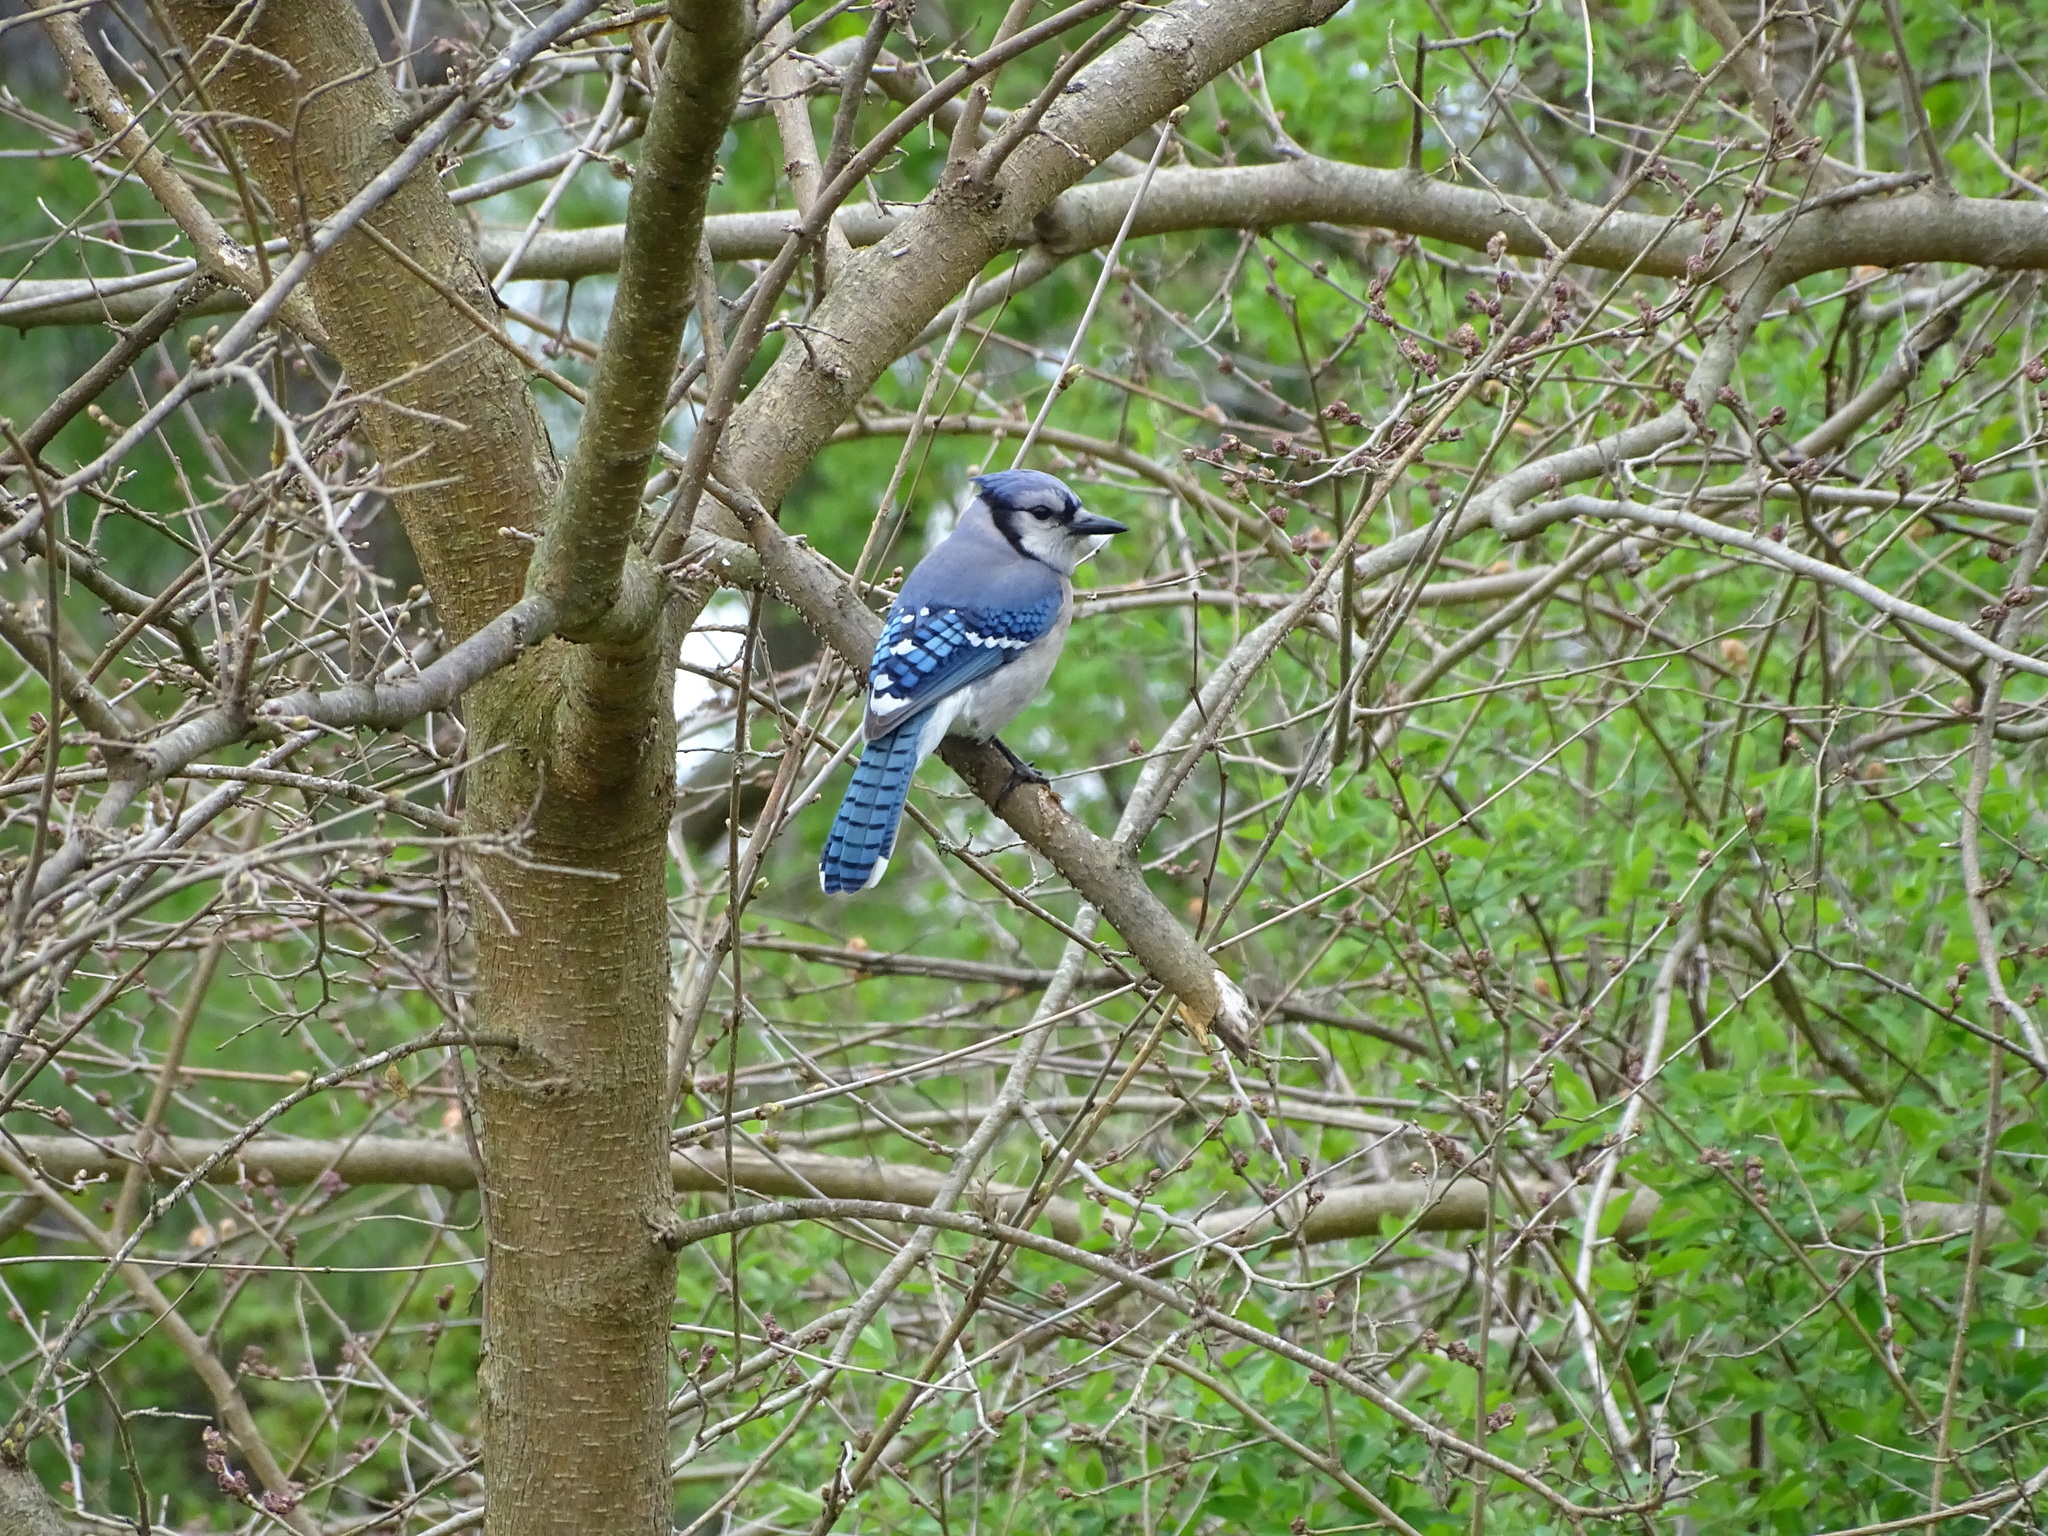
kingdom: Animalia
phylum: Chordata
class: Aves
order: Passeriformes
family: Corvidae
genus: Cyanocitta
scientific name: Cyanocitta cristata
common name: Blue jay
